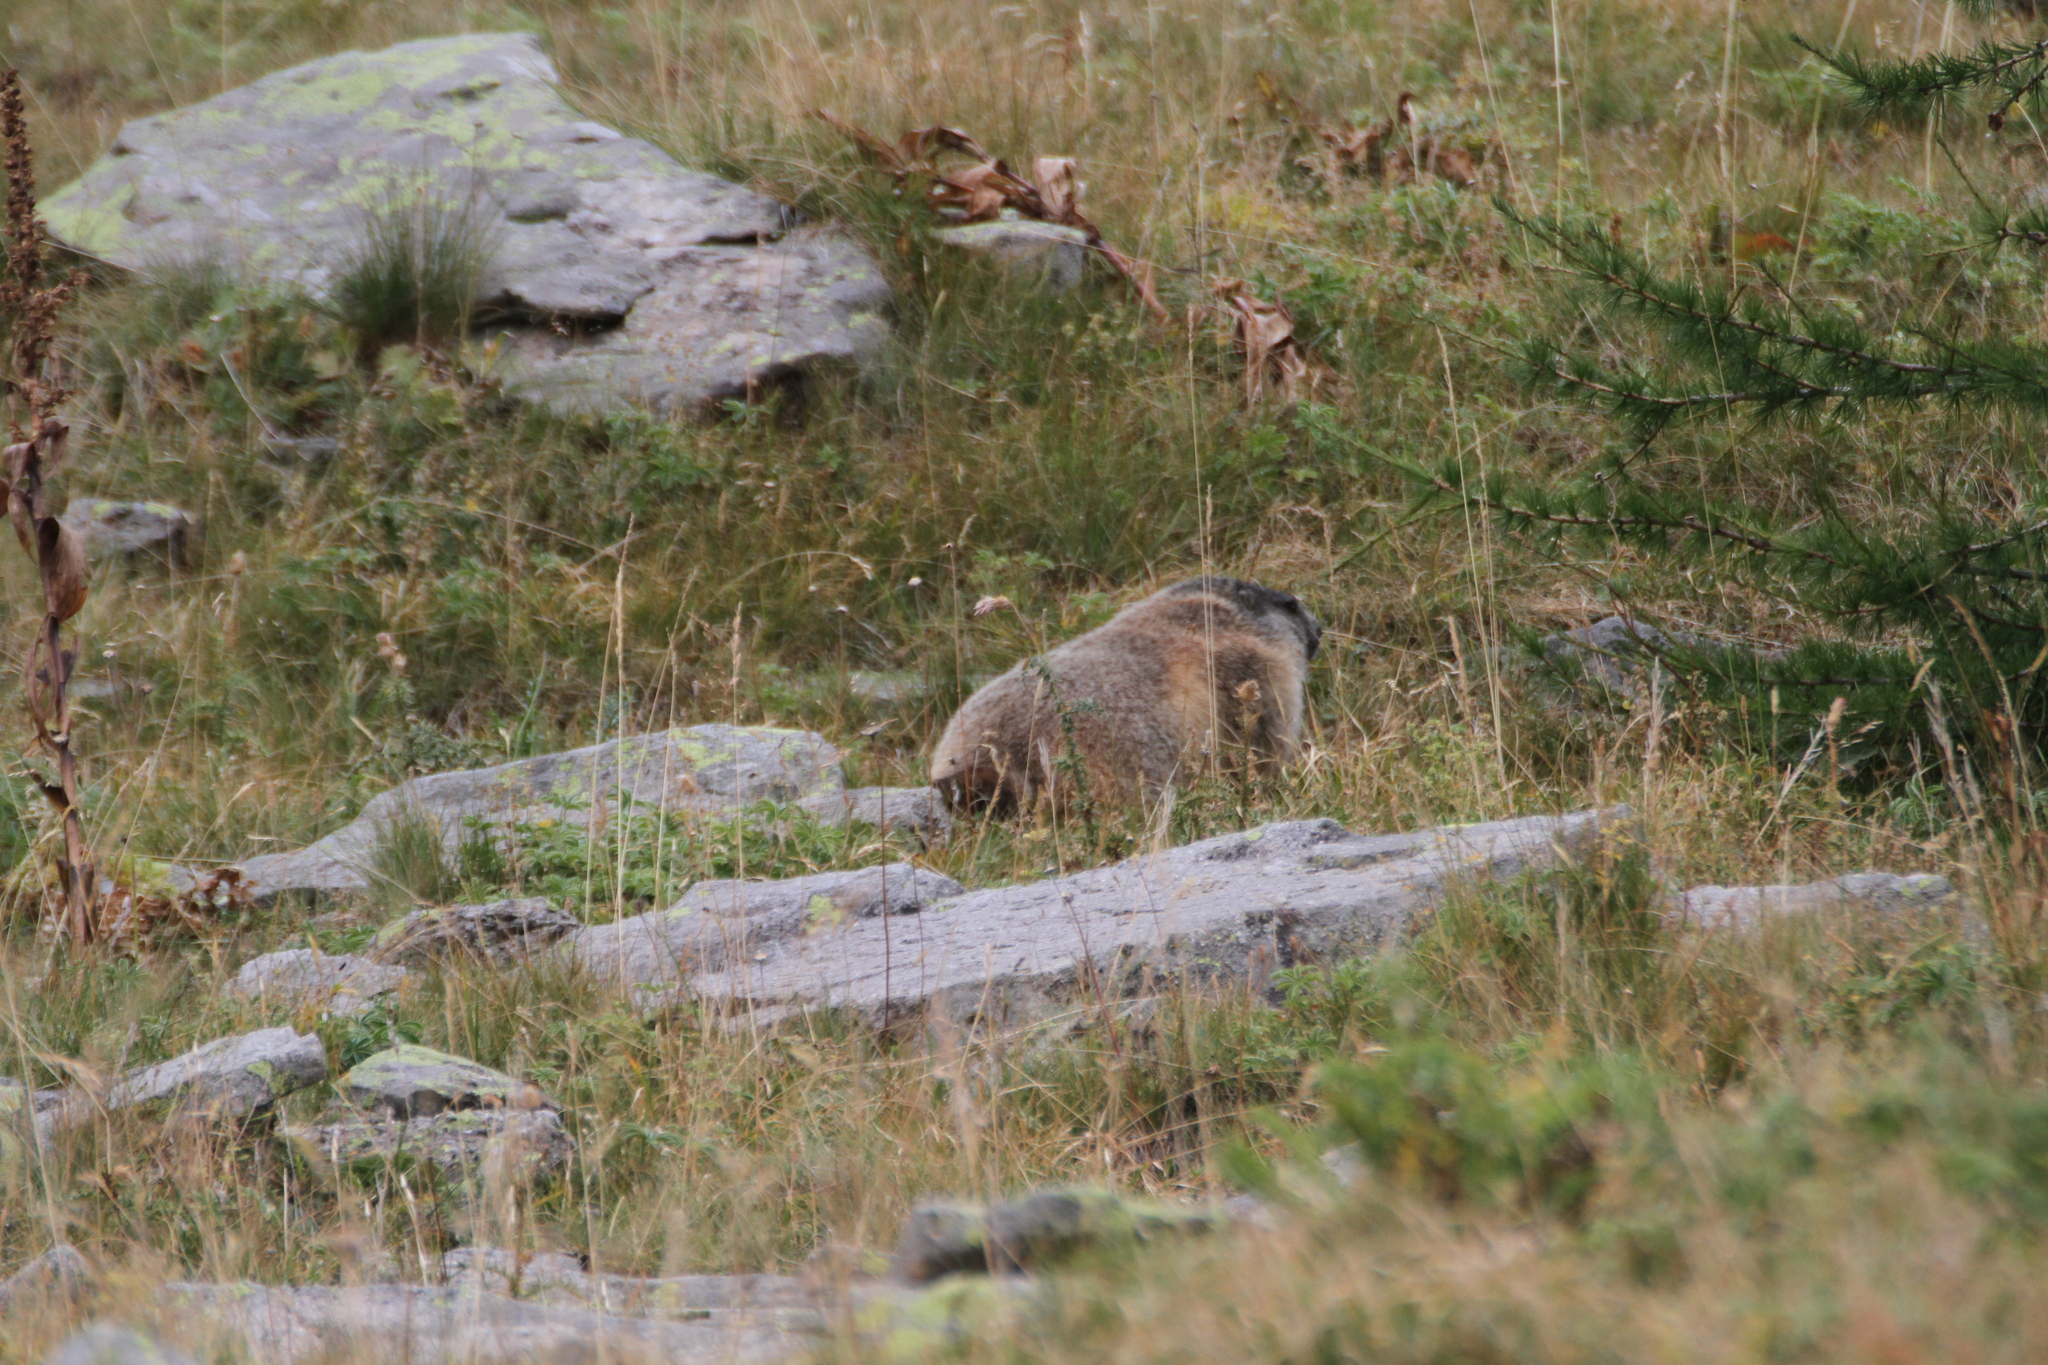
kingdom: Animalia
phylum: Chordata
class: Mammalia
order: Rodentia
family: Sciuridae
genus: Marmota
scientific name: Marmota marmota
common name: Alpine marmot
